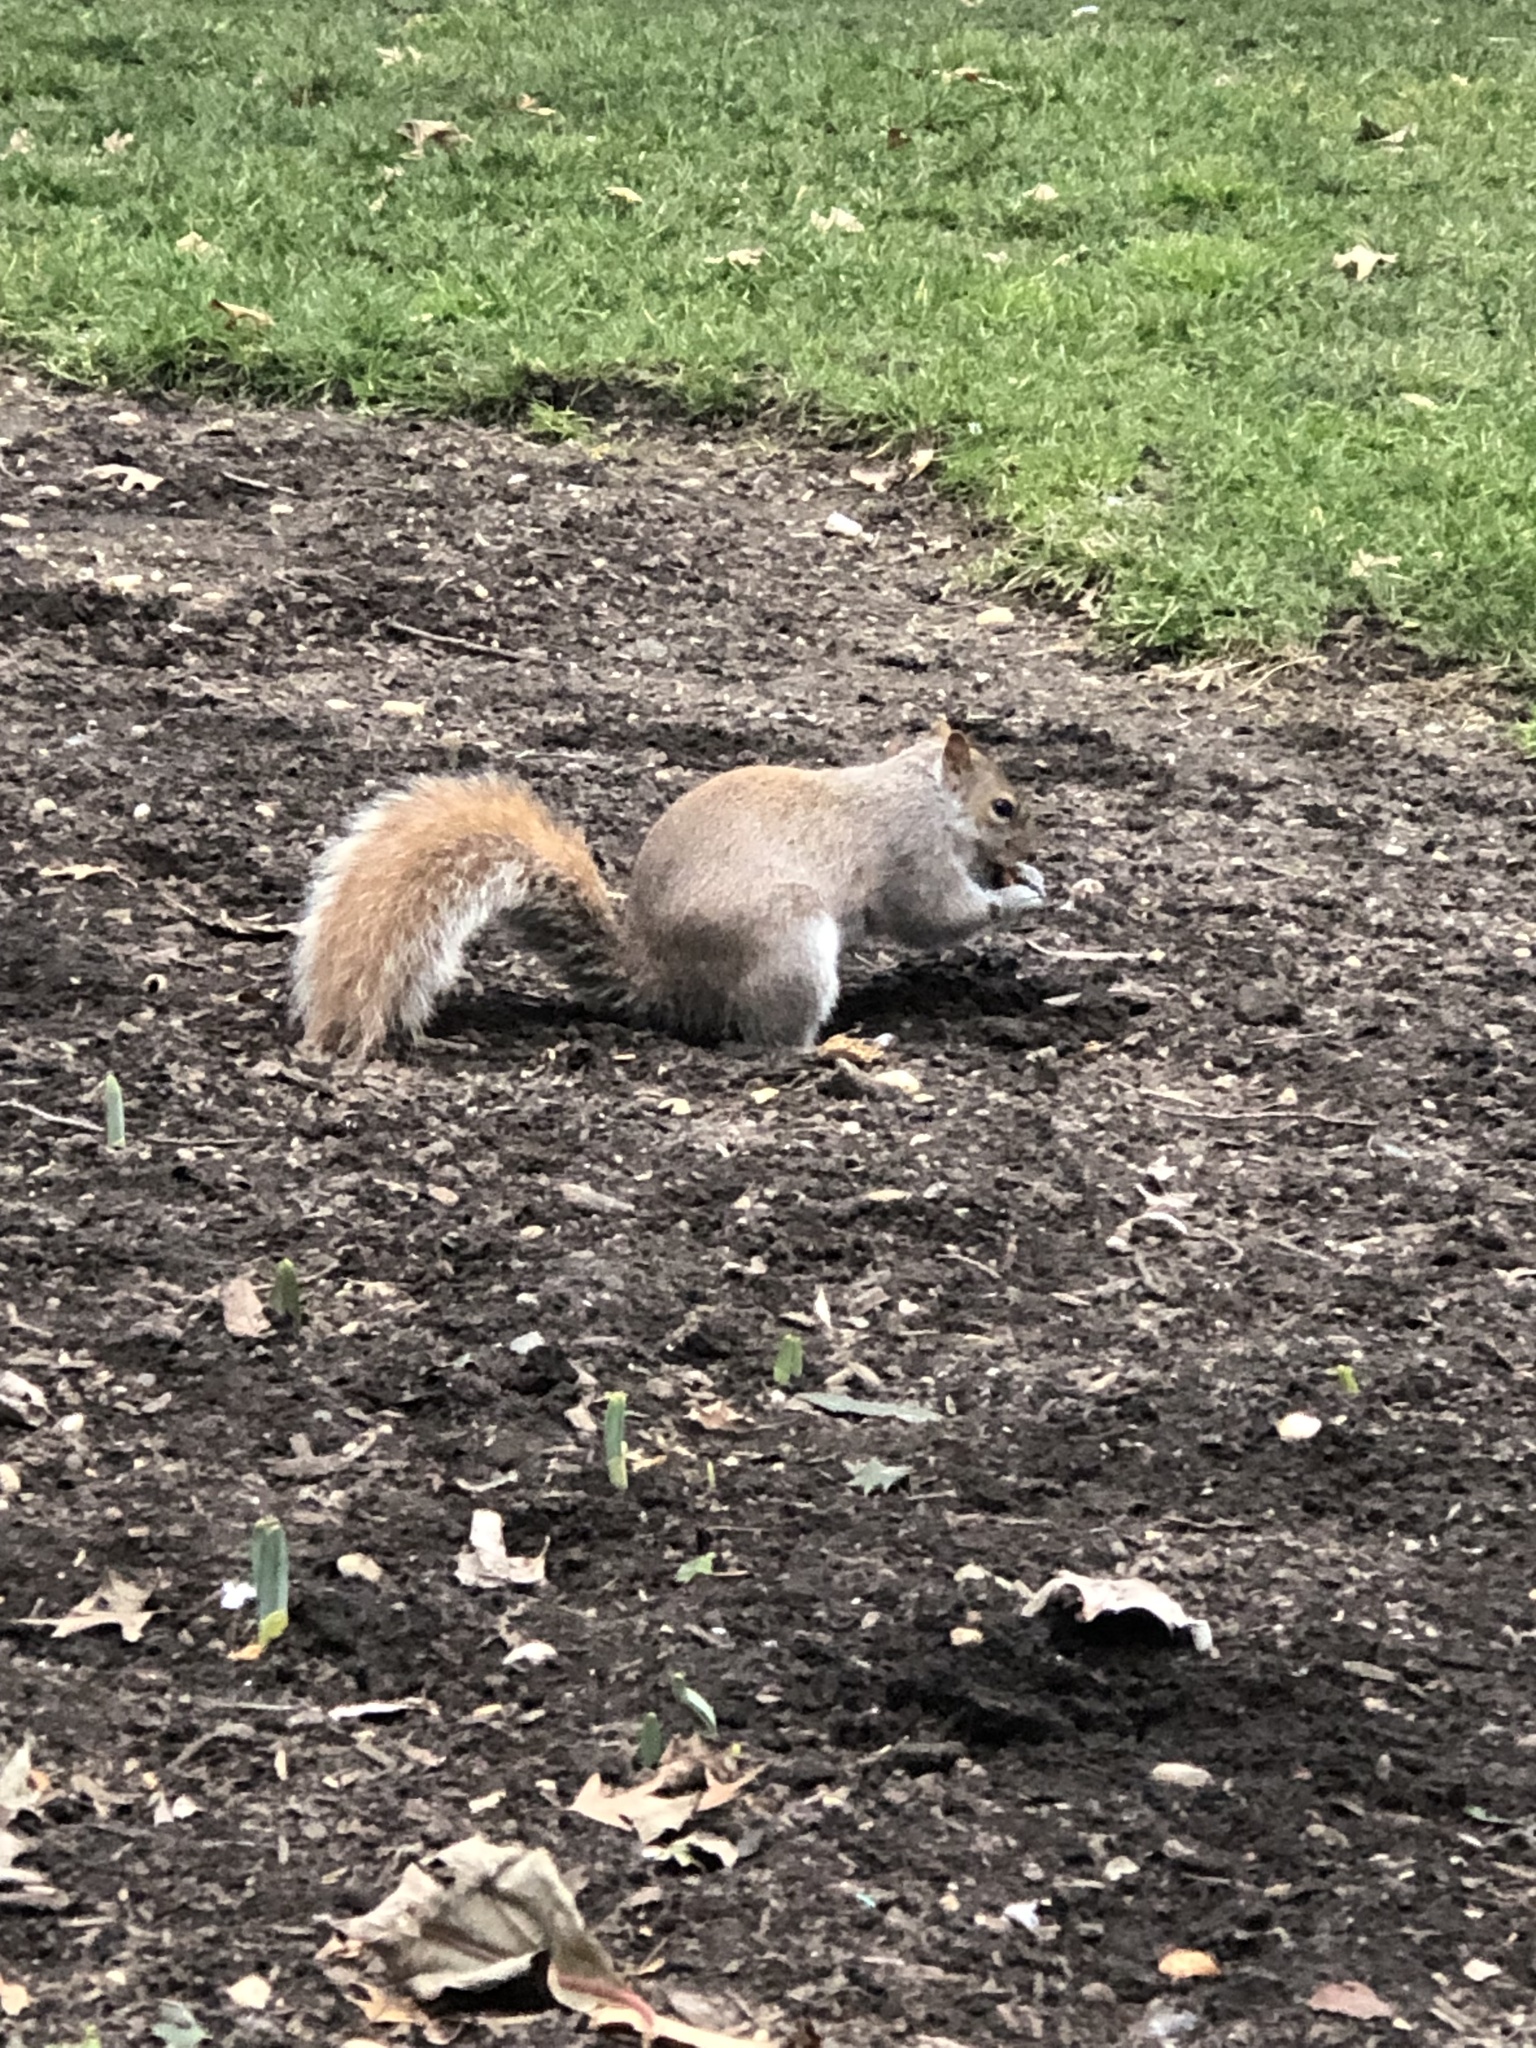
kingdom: Animalia
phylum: Chordata
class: Mammalia
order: Rodentia
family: Sciuridae
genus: Sciurus
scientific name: Sciurus carolinensis
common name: Eastern gray squirrel
